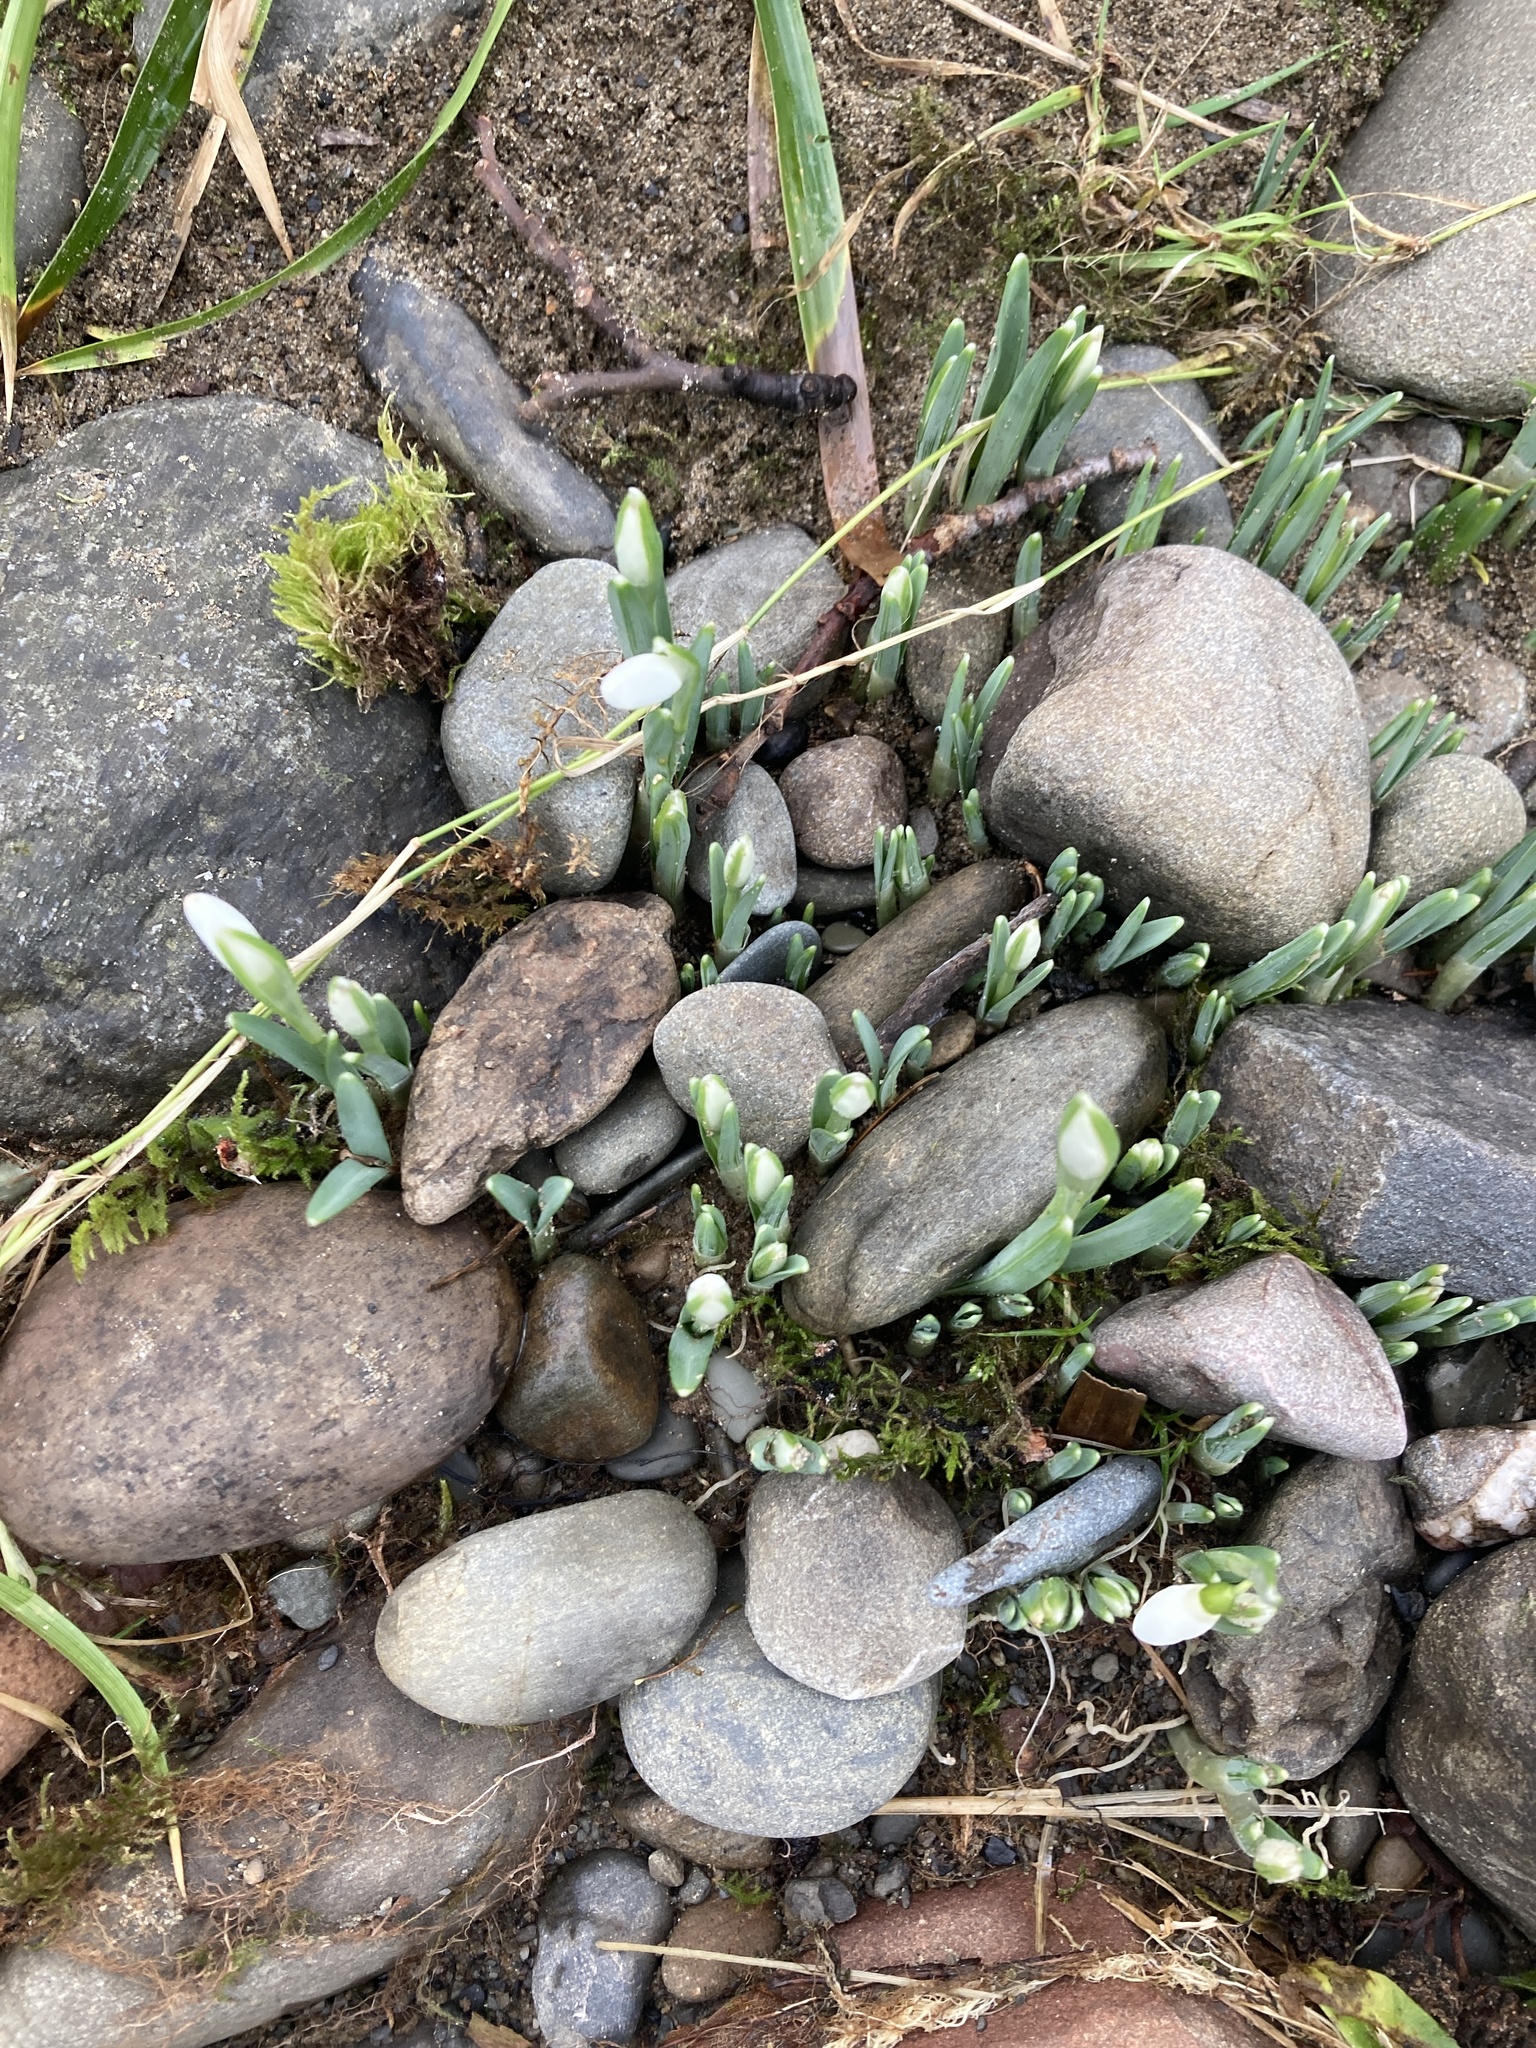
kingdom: Plantae
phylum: Tracheophyta
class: Liliopsida
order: Asparagales
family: Amaryllidaceae
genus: Galanthus
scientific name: Galanthus nivalis
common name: Snowdrop
